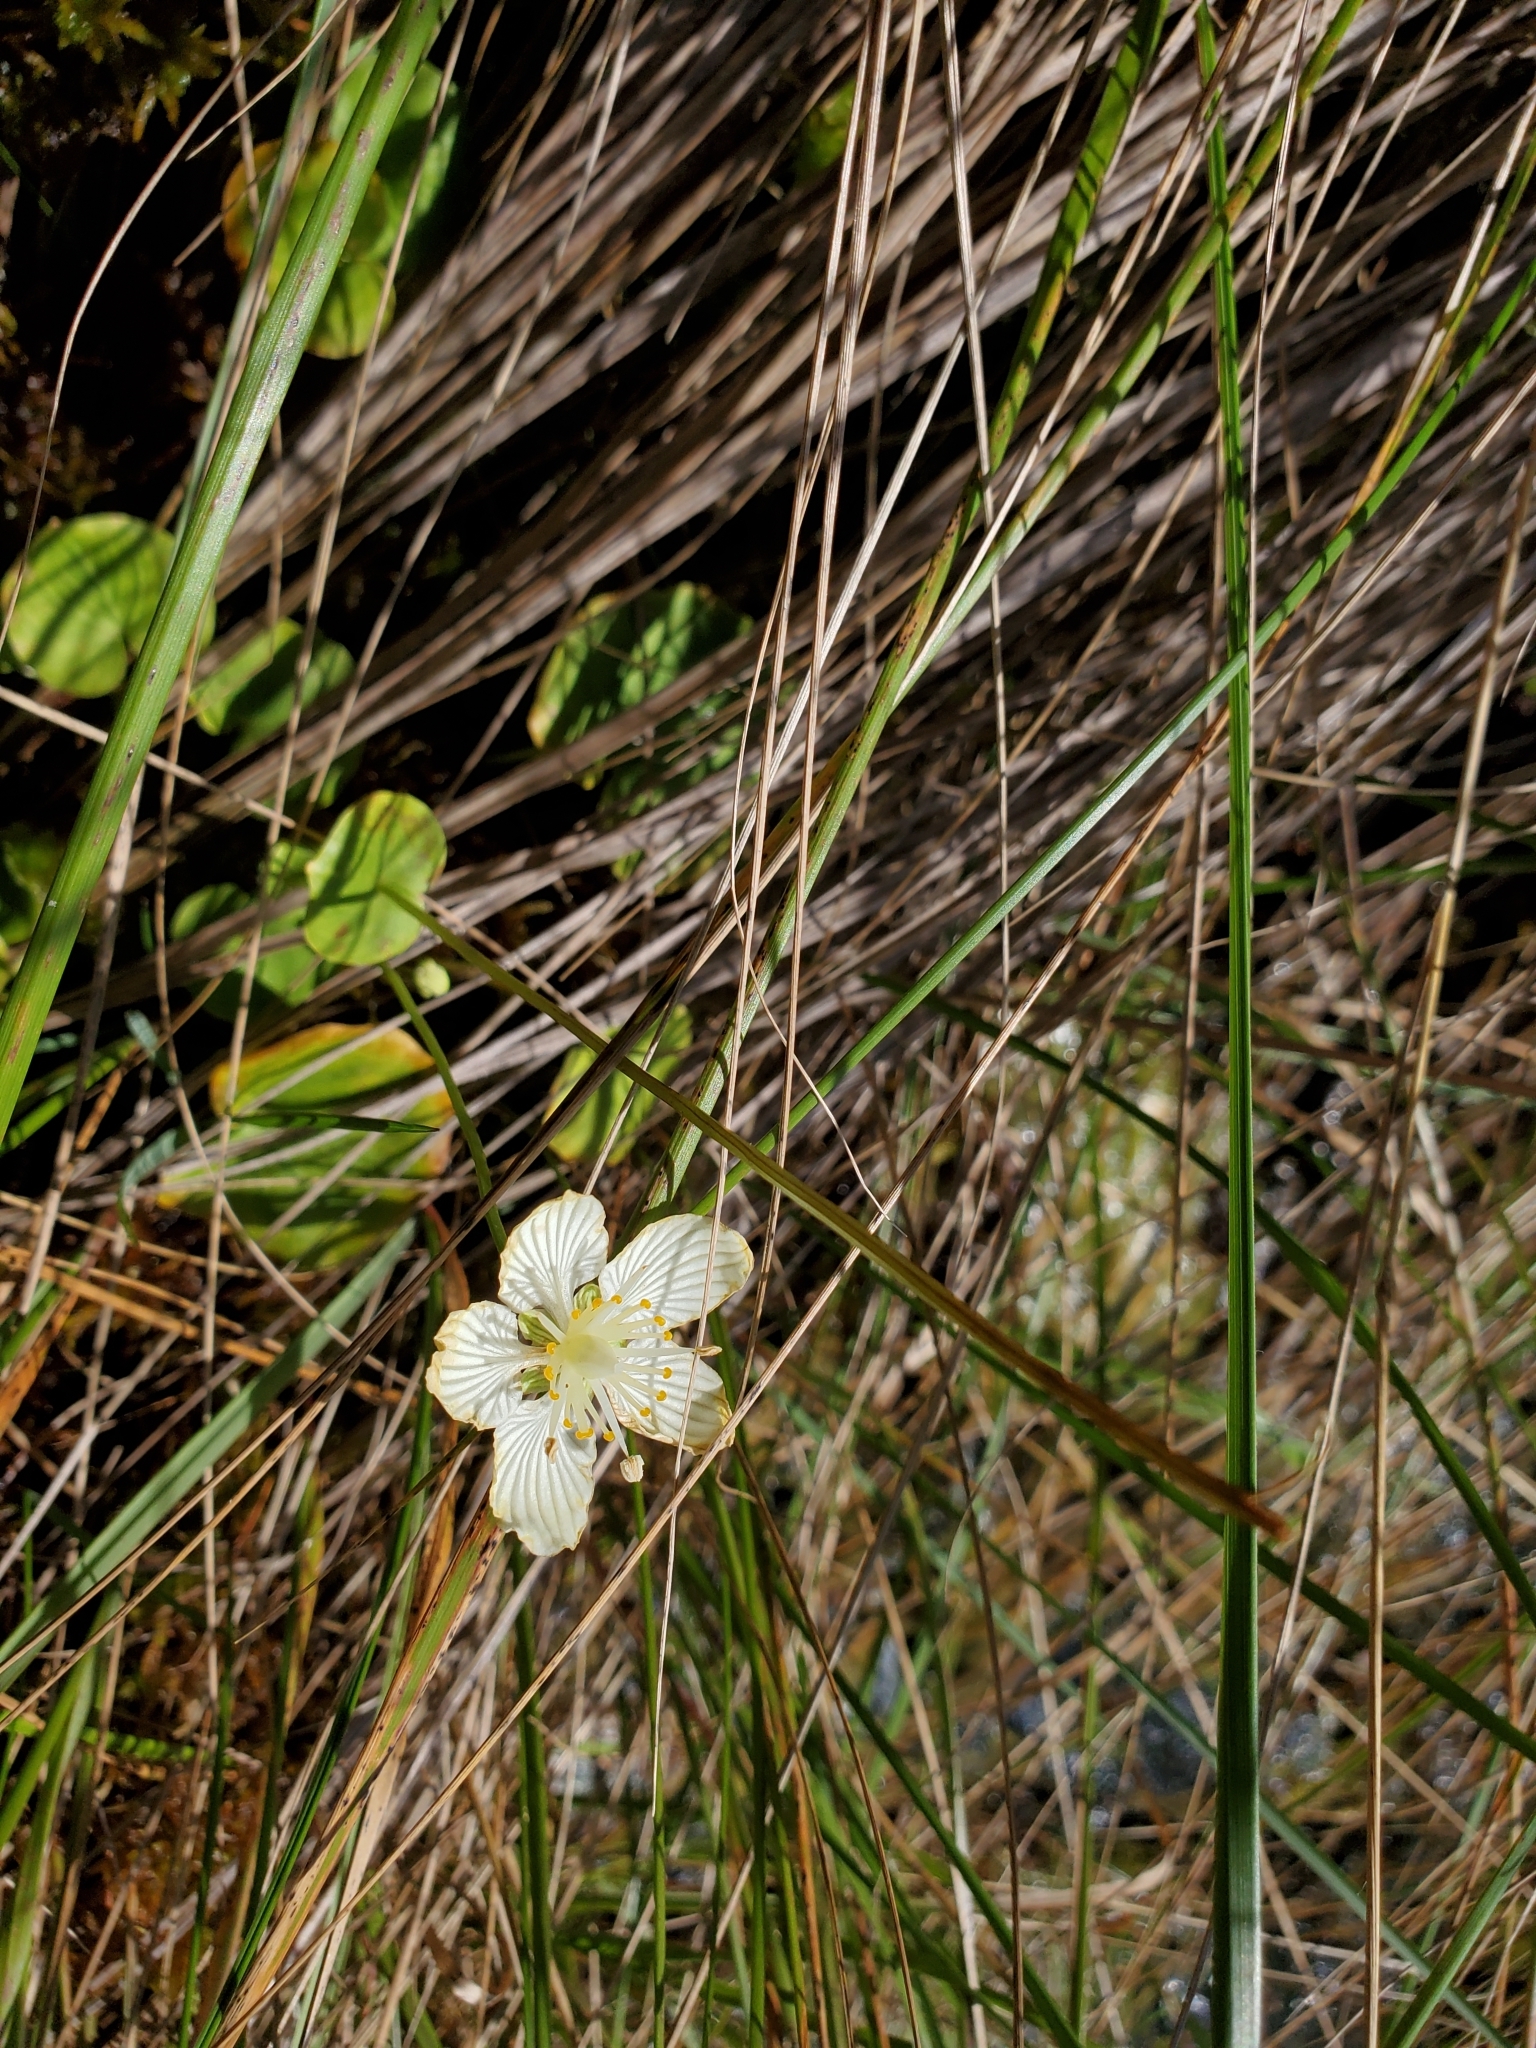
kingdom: Plantae
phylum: Tracheophyta
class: Magnoliopsida
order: Celastrales
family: Parnassiaceae
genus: Parnassia
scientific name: Parnassia asarifolia
